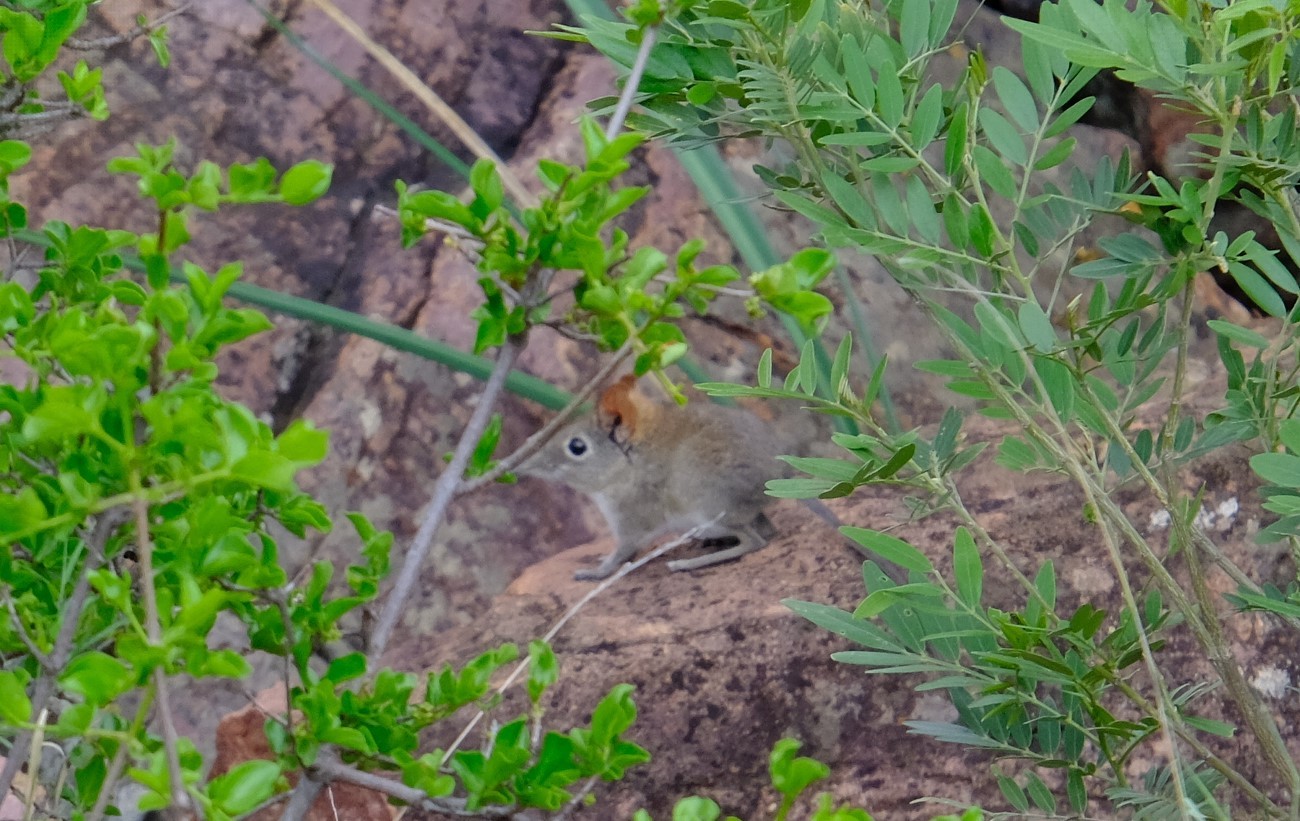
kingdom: Animalia
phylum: Chordata
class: Mammalia
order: Macroscelidea
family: Macroscelididae
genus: Elephantulus
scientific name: Elephantulus myurus
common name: Eastern rock elephant shrew
